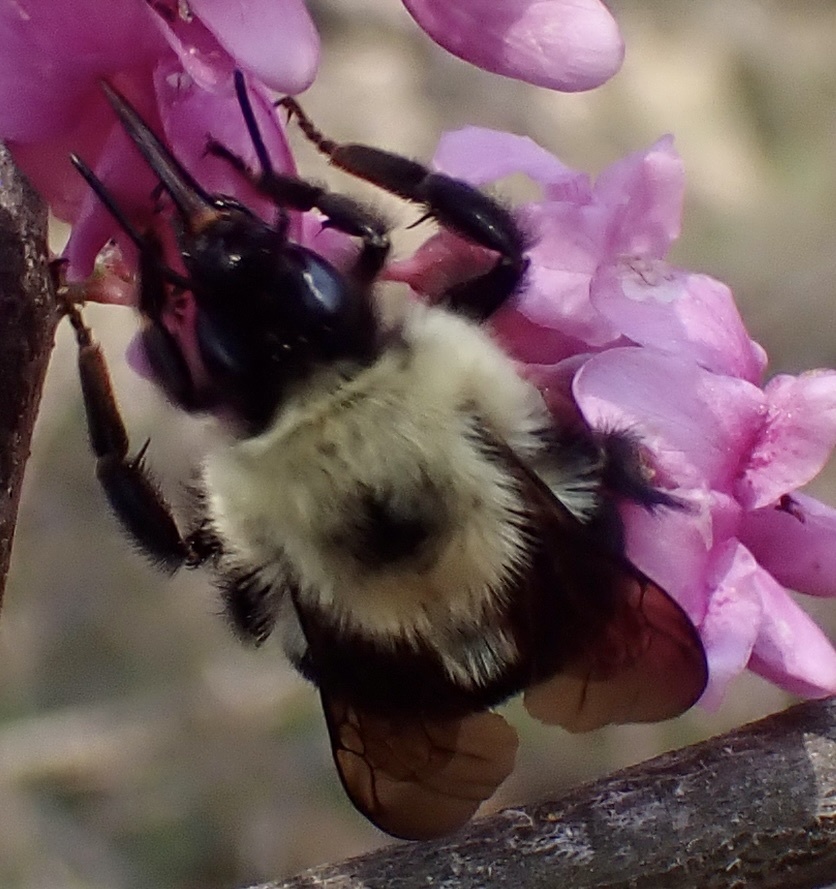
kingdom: Animalia
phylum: Arthropoda
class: Insecta
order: Hymenoptera
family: Apidae
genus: Bombus
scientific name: Bombus bimaculatus
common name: Two-spotted bumble bee
